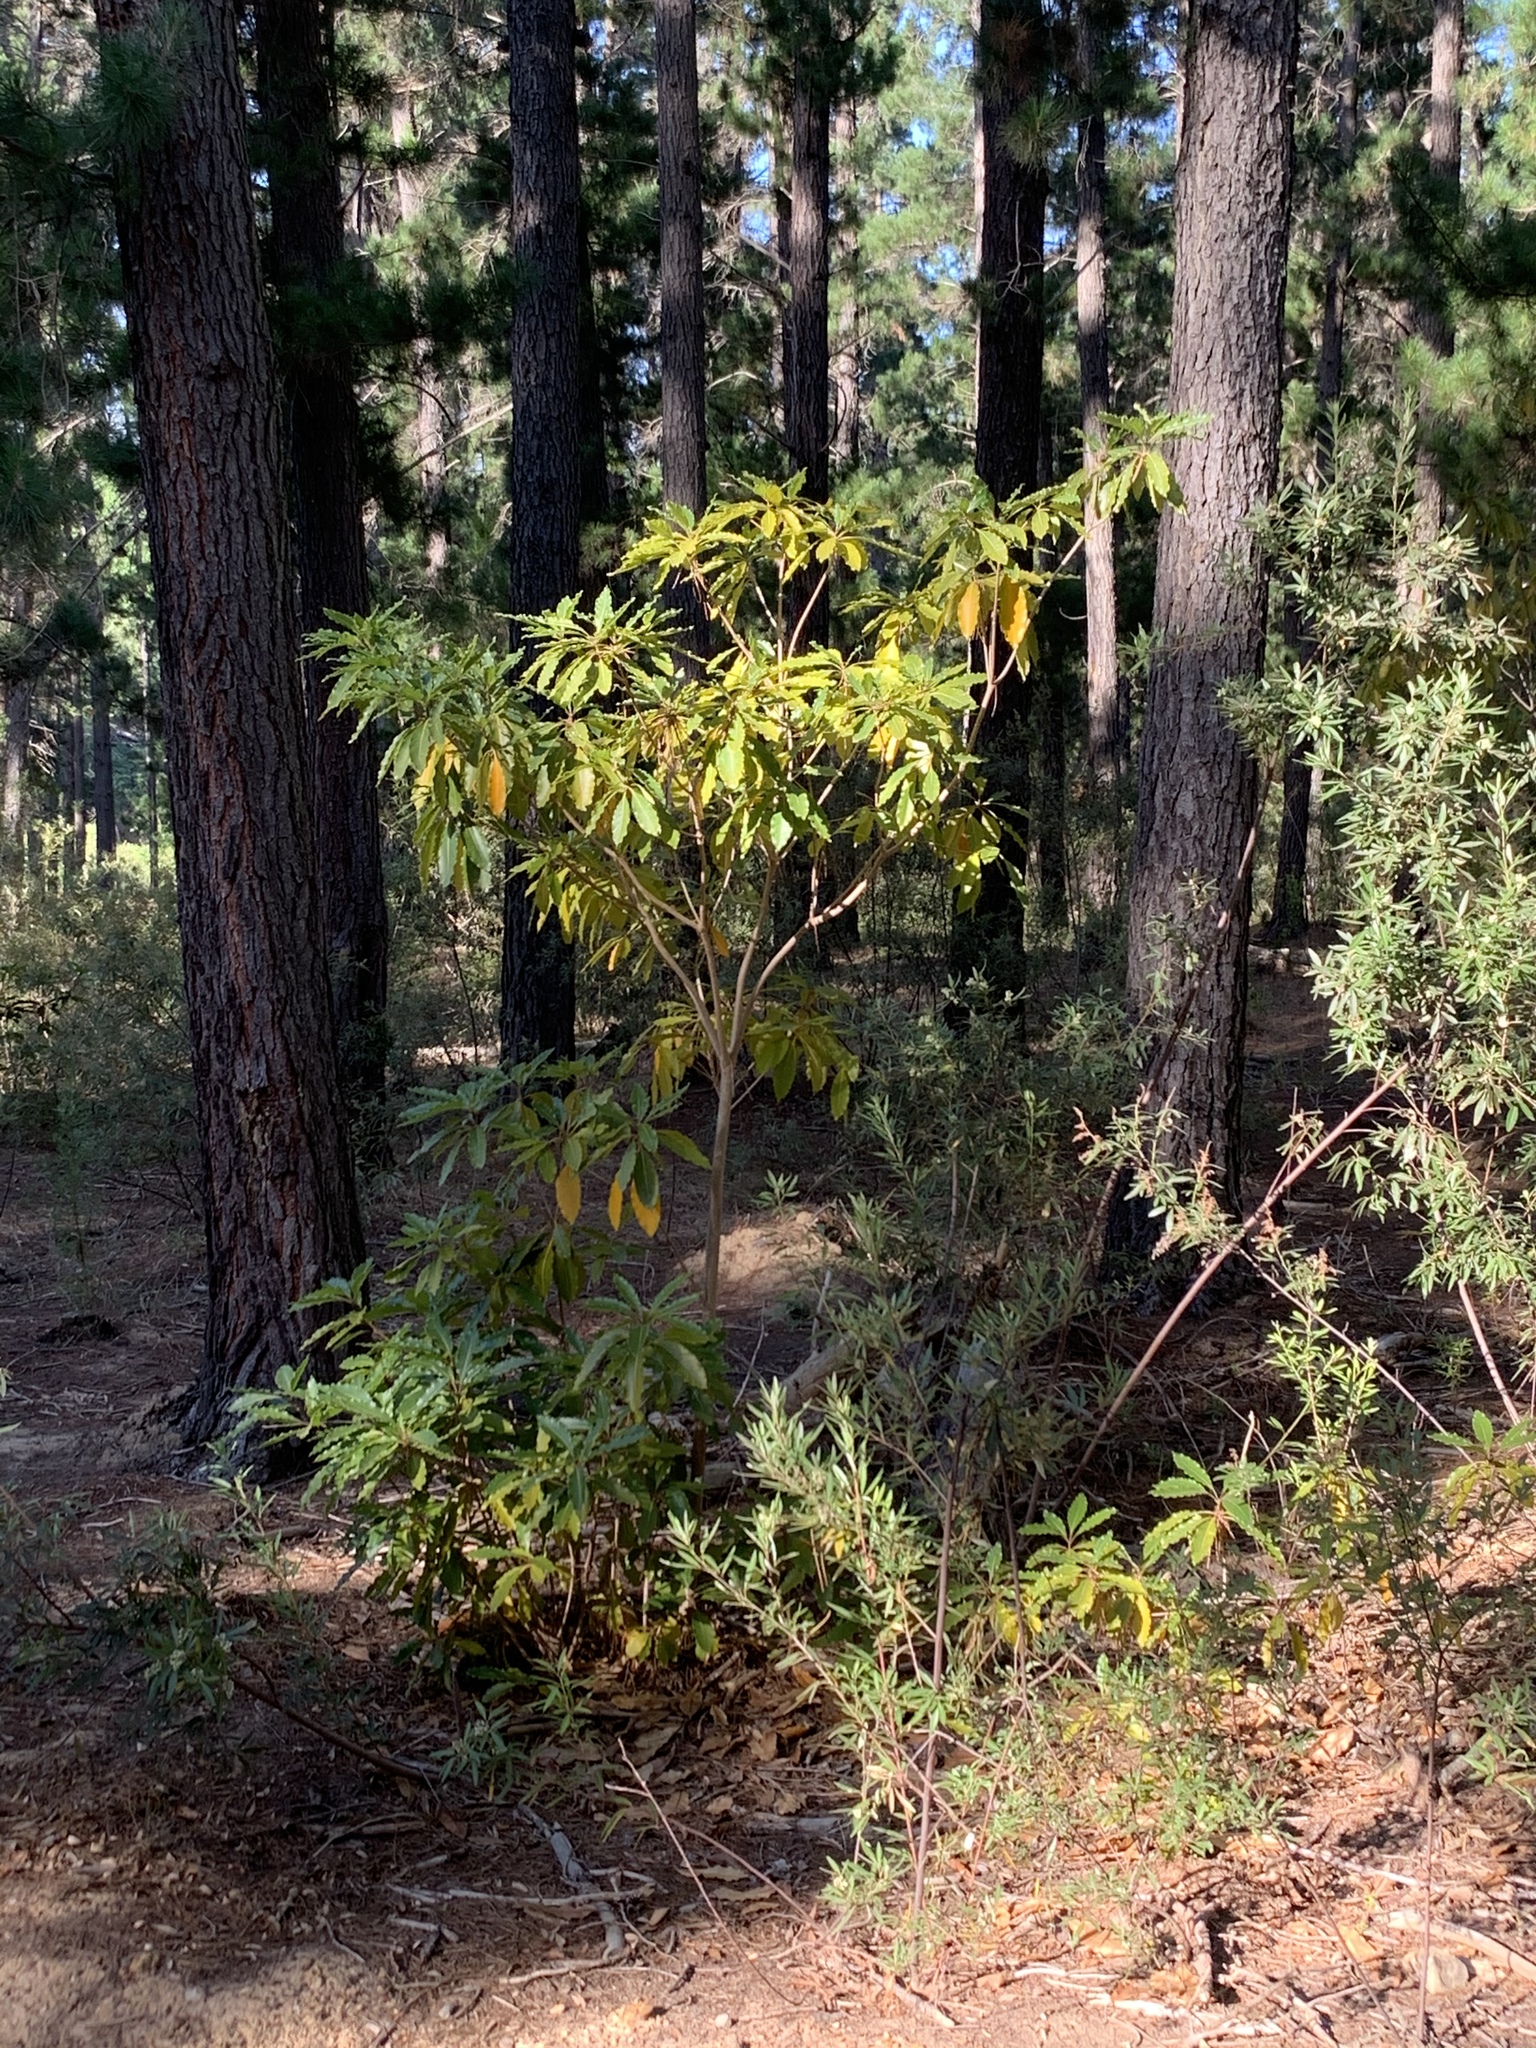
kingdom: Plantae
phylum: Tracheophyta
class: Magnoliopsida
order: Apiales
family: Pittosporaceae
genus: Pittosporum
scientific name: Pittosporum undulatum
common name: Australian cheesewood
